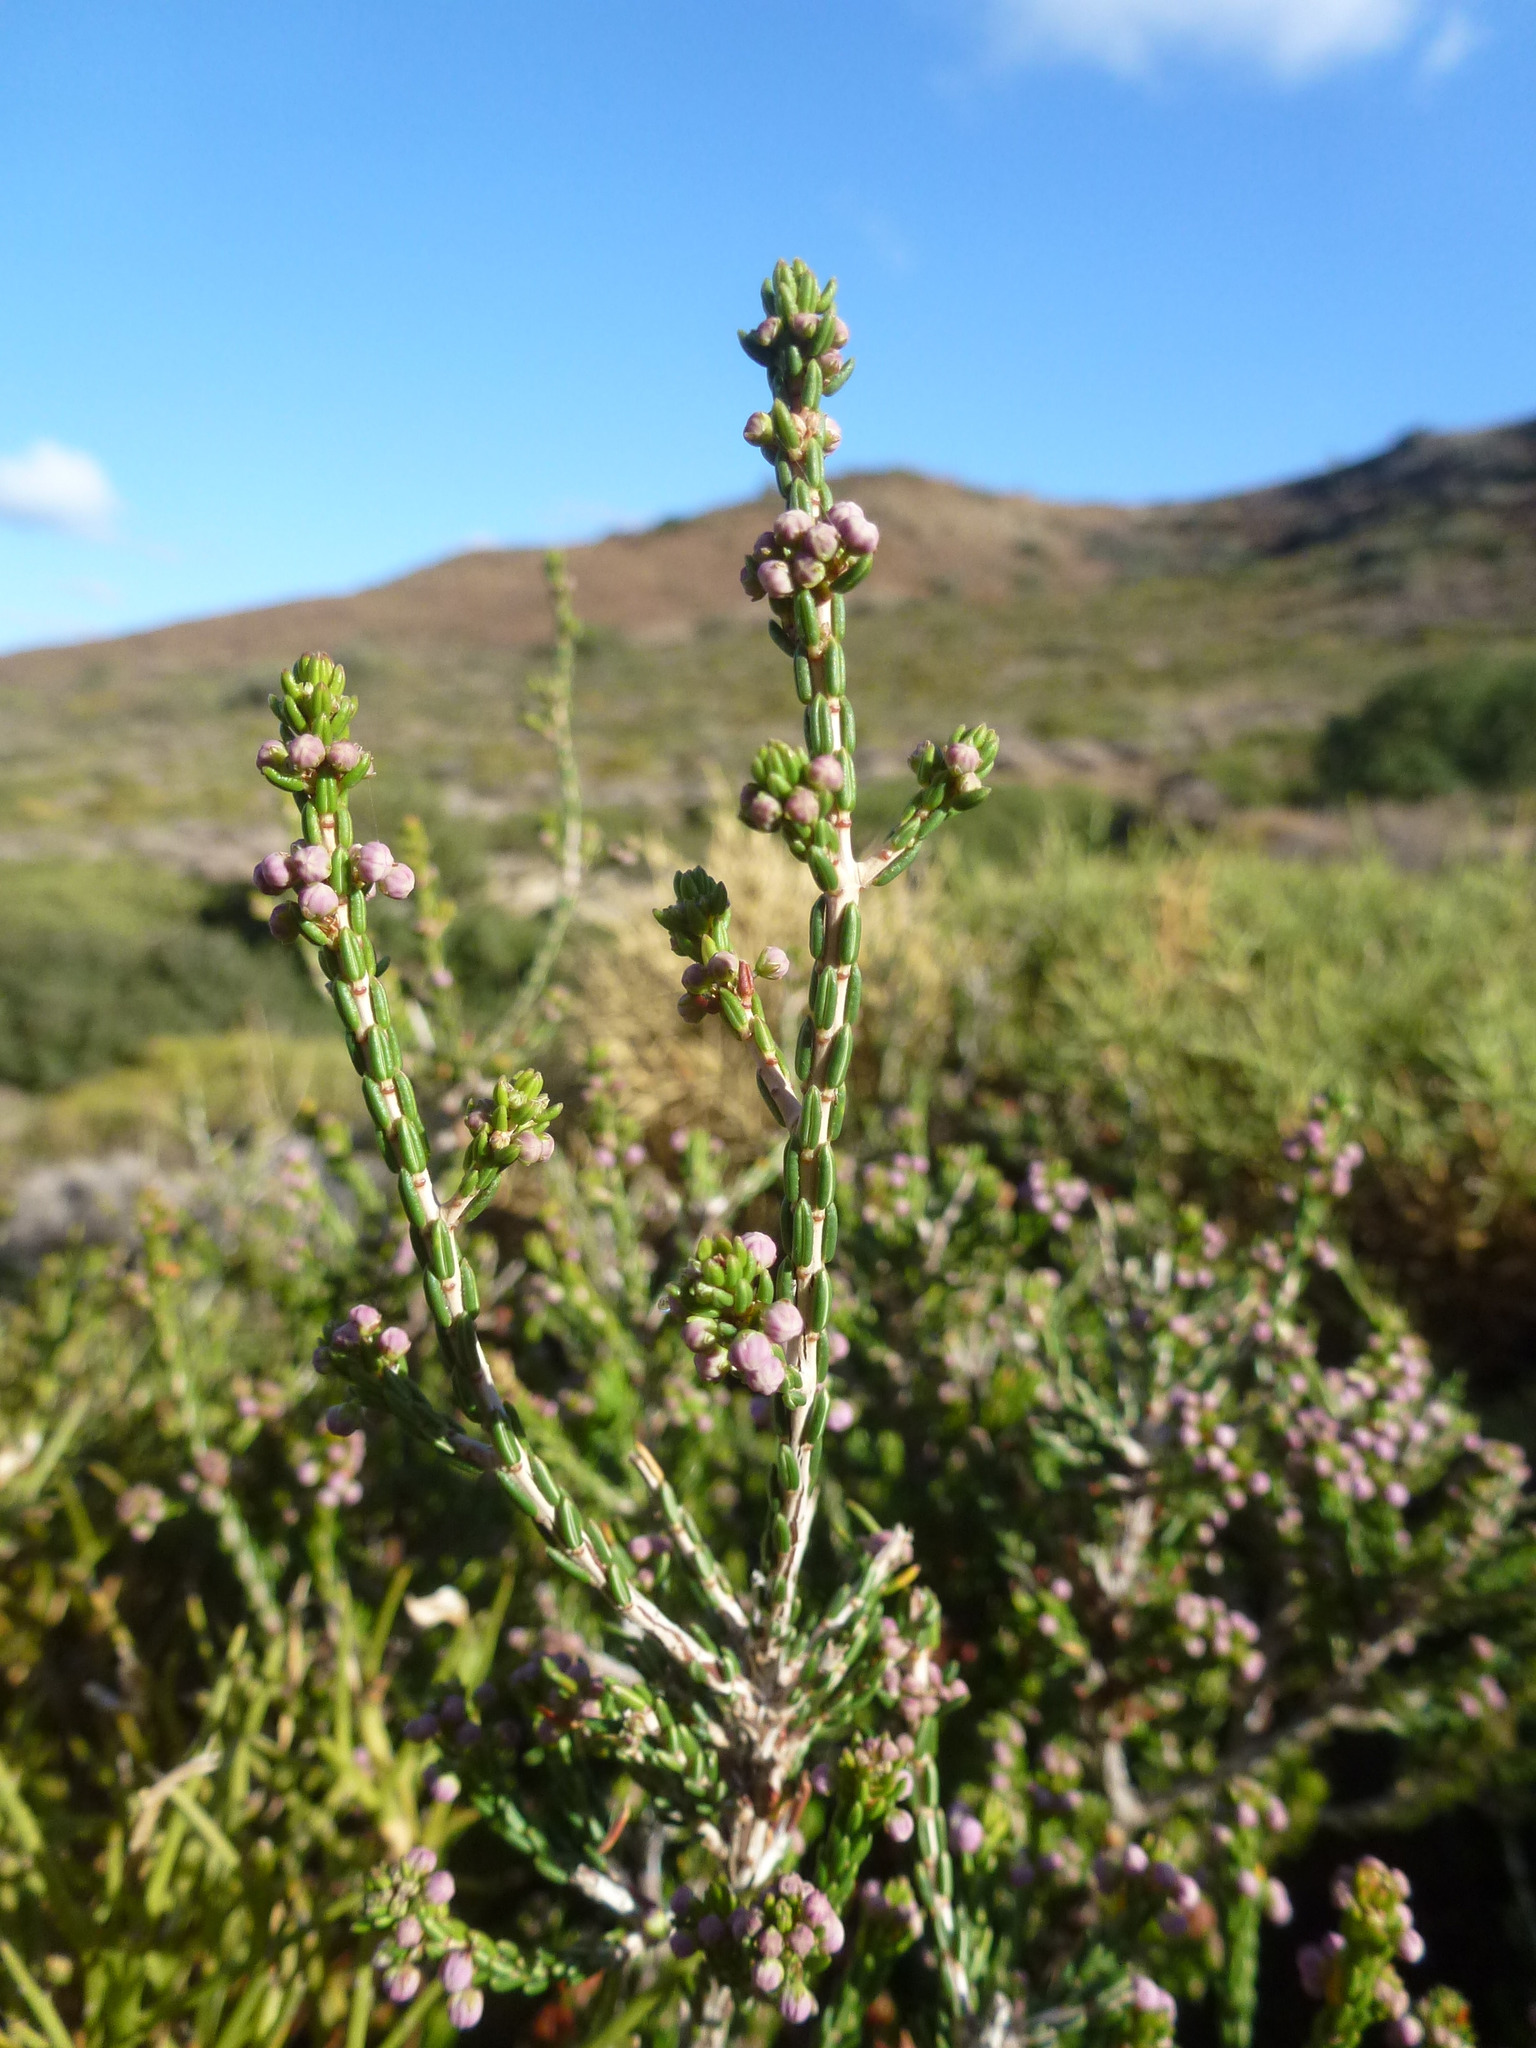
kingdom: Plantae
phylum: Tracheophyta
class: Magnoliopsida
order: Ericales
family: Ericaceae
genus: Erica
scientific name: Erica manipuliflora
